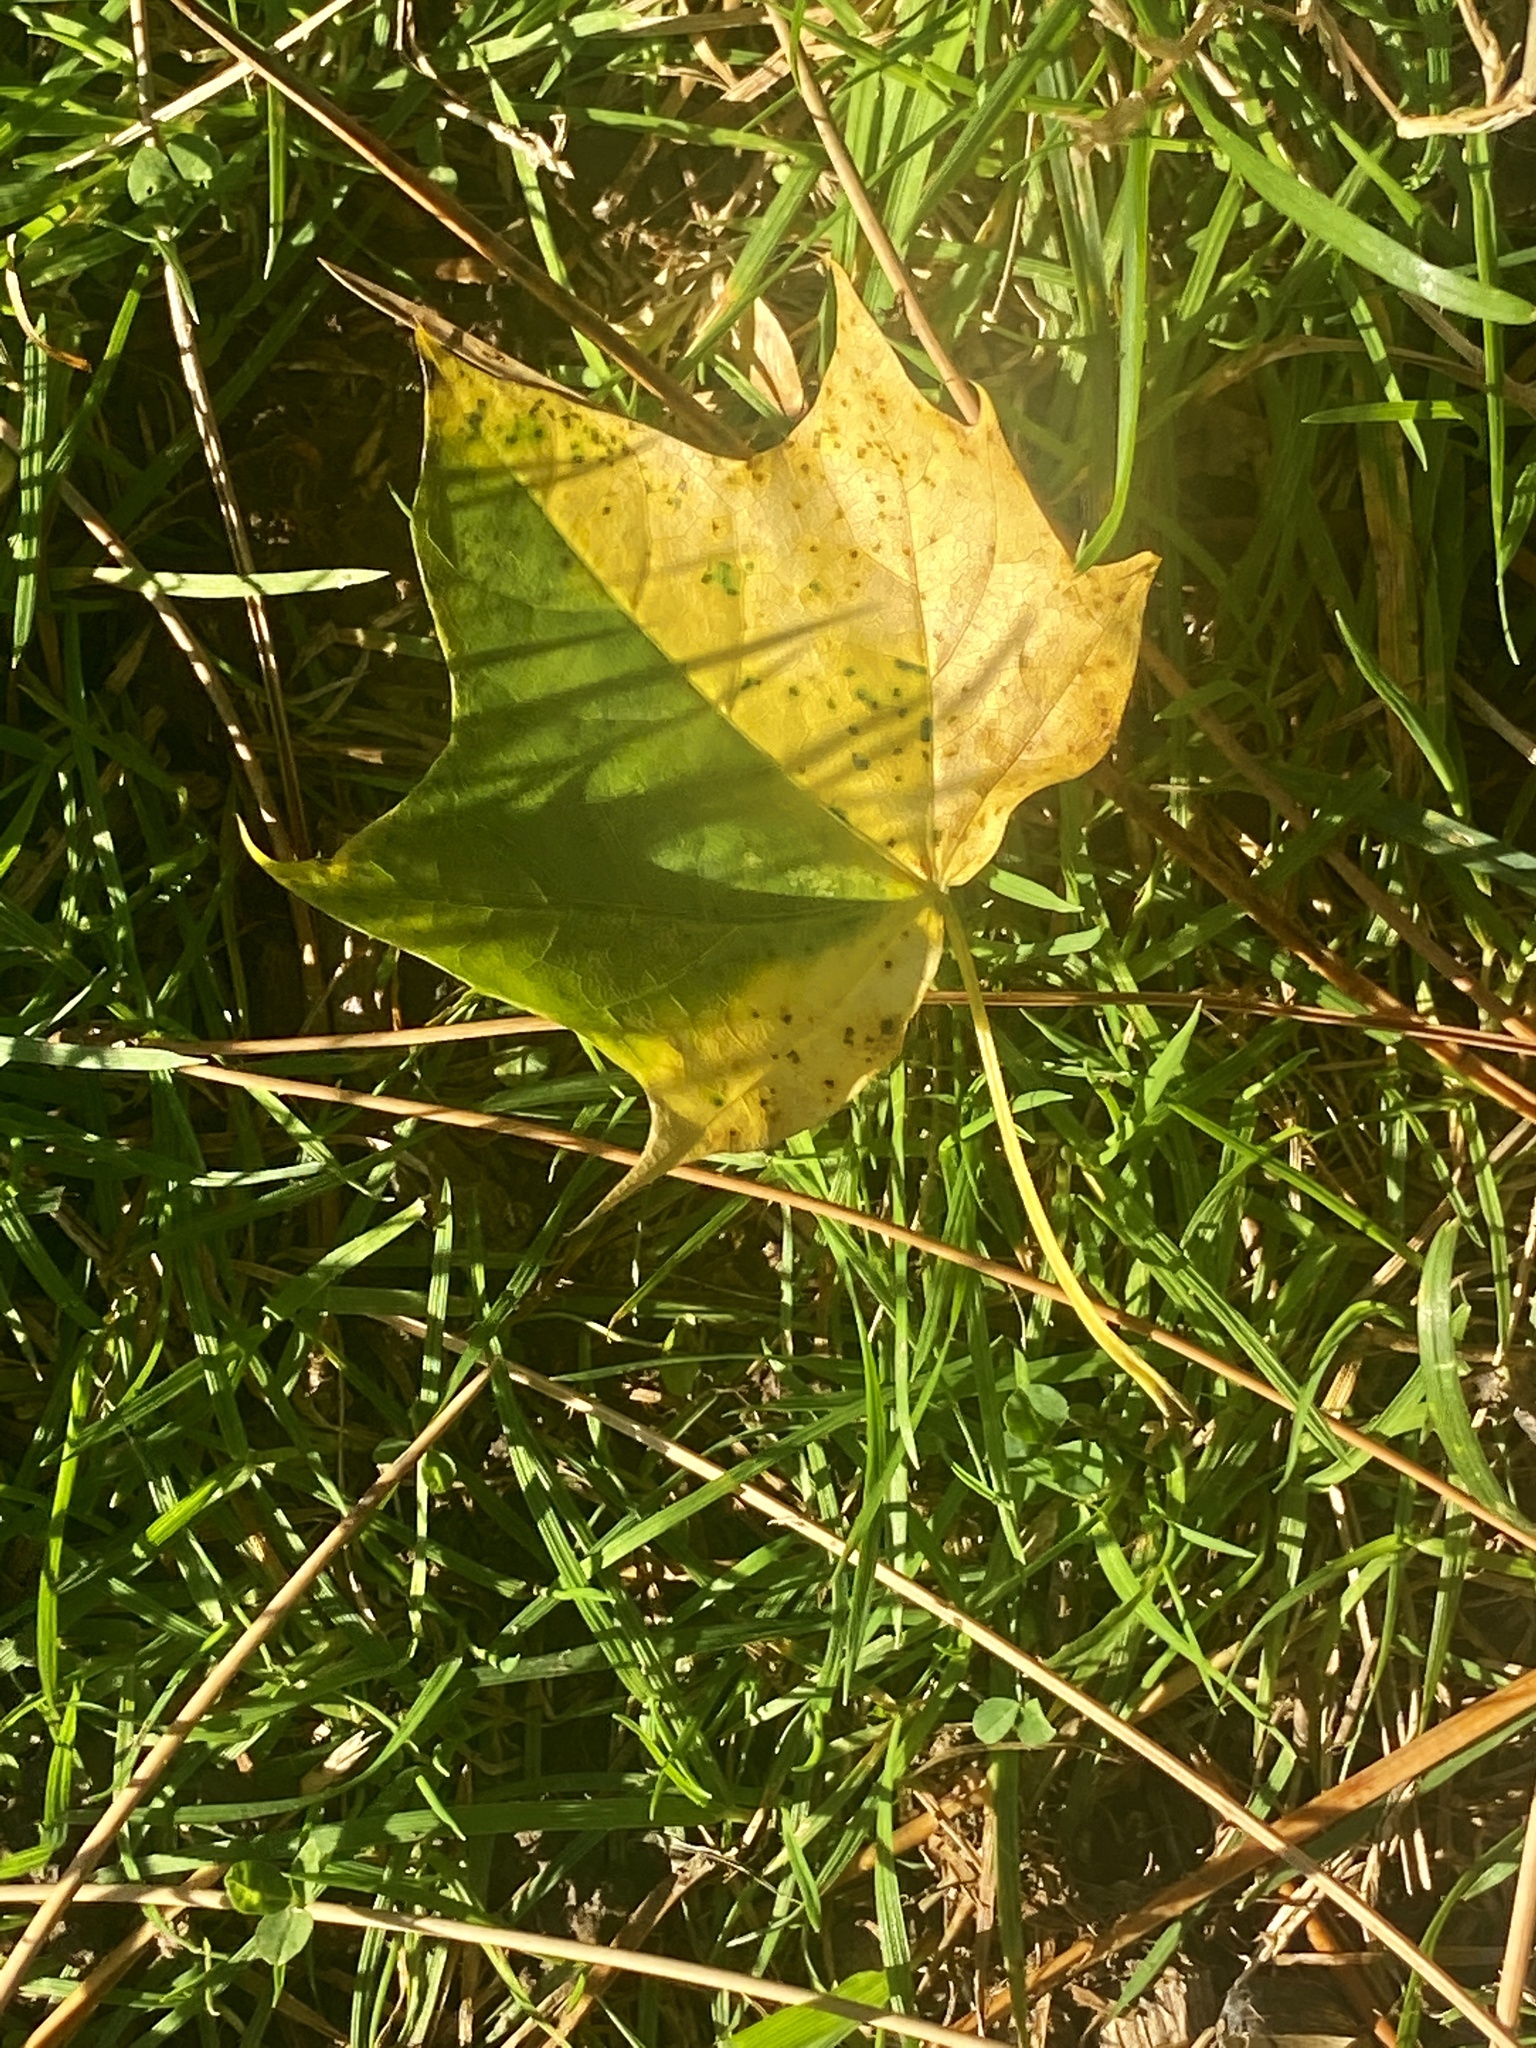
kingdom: Plantae
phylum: Tracheophyta
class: Magnoliopsida
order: Sapindales
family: Sapindaceae
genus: Acer
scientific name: Acer platanoides
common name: Norway maple
